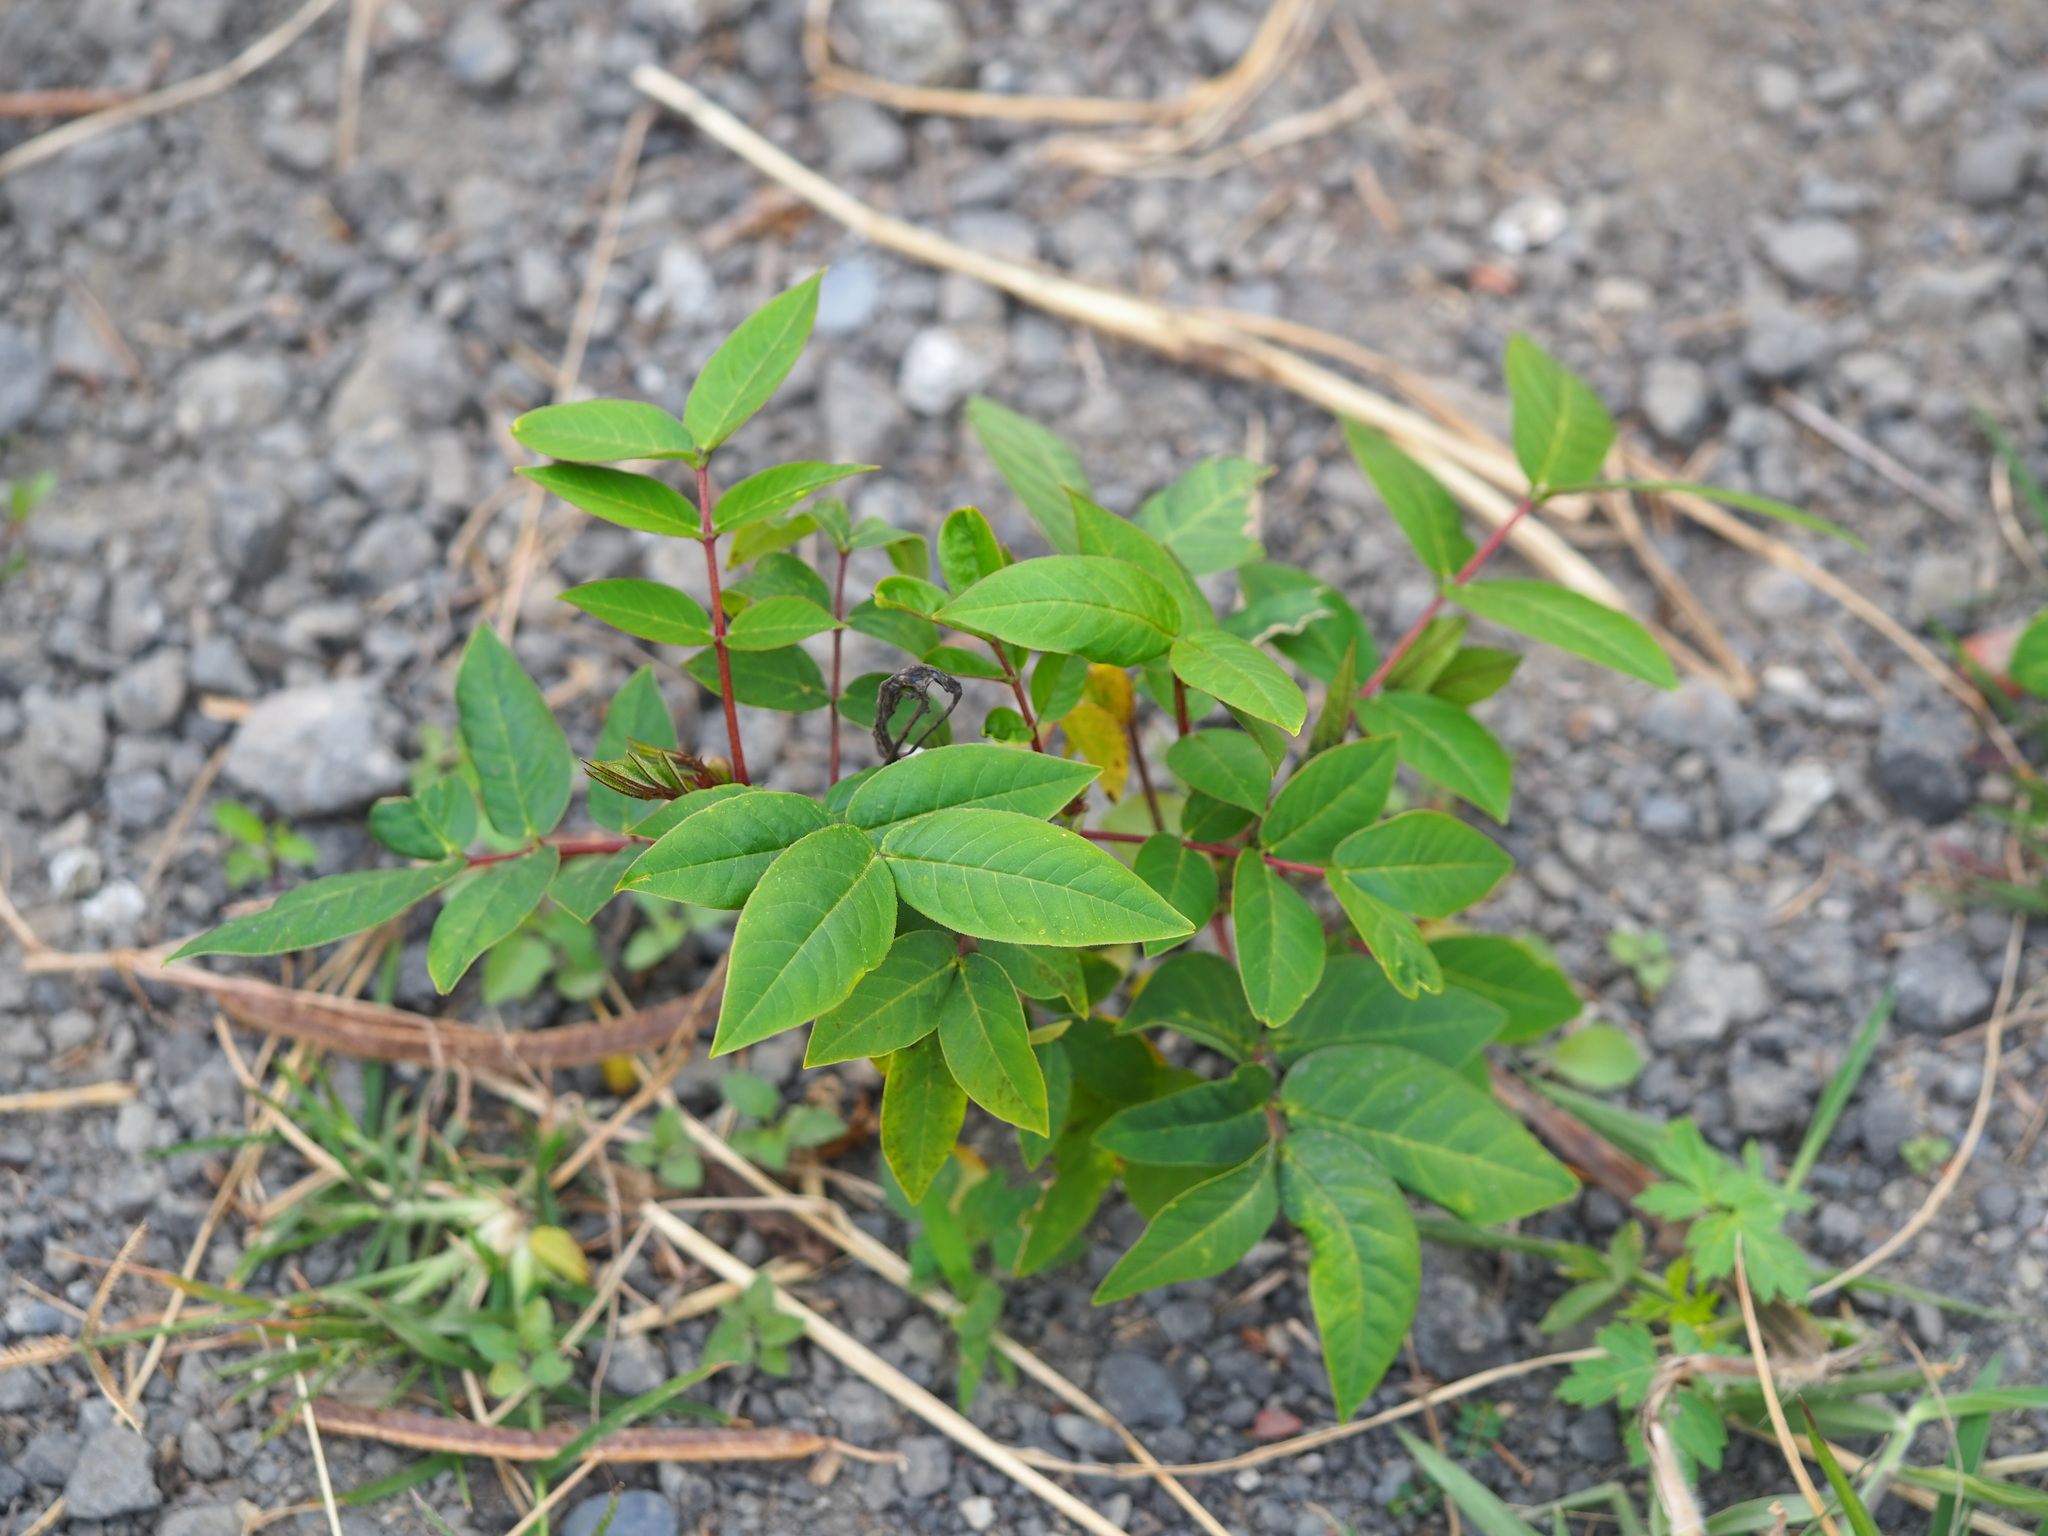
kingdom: Plantae
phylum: Tracheophyta
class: Magnoliopsida
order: Fabales
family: Fabaceae
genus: Senna
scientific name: Senna occidentalis
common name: Septicweed
